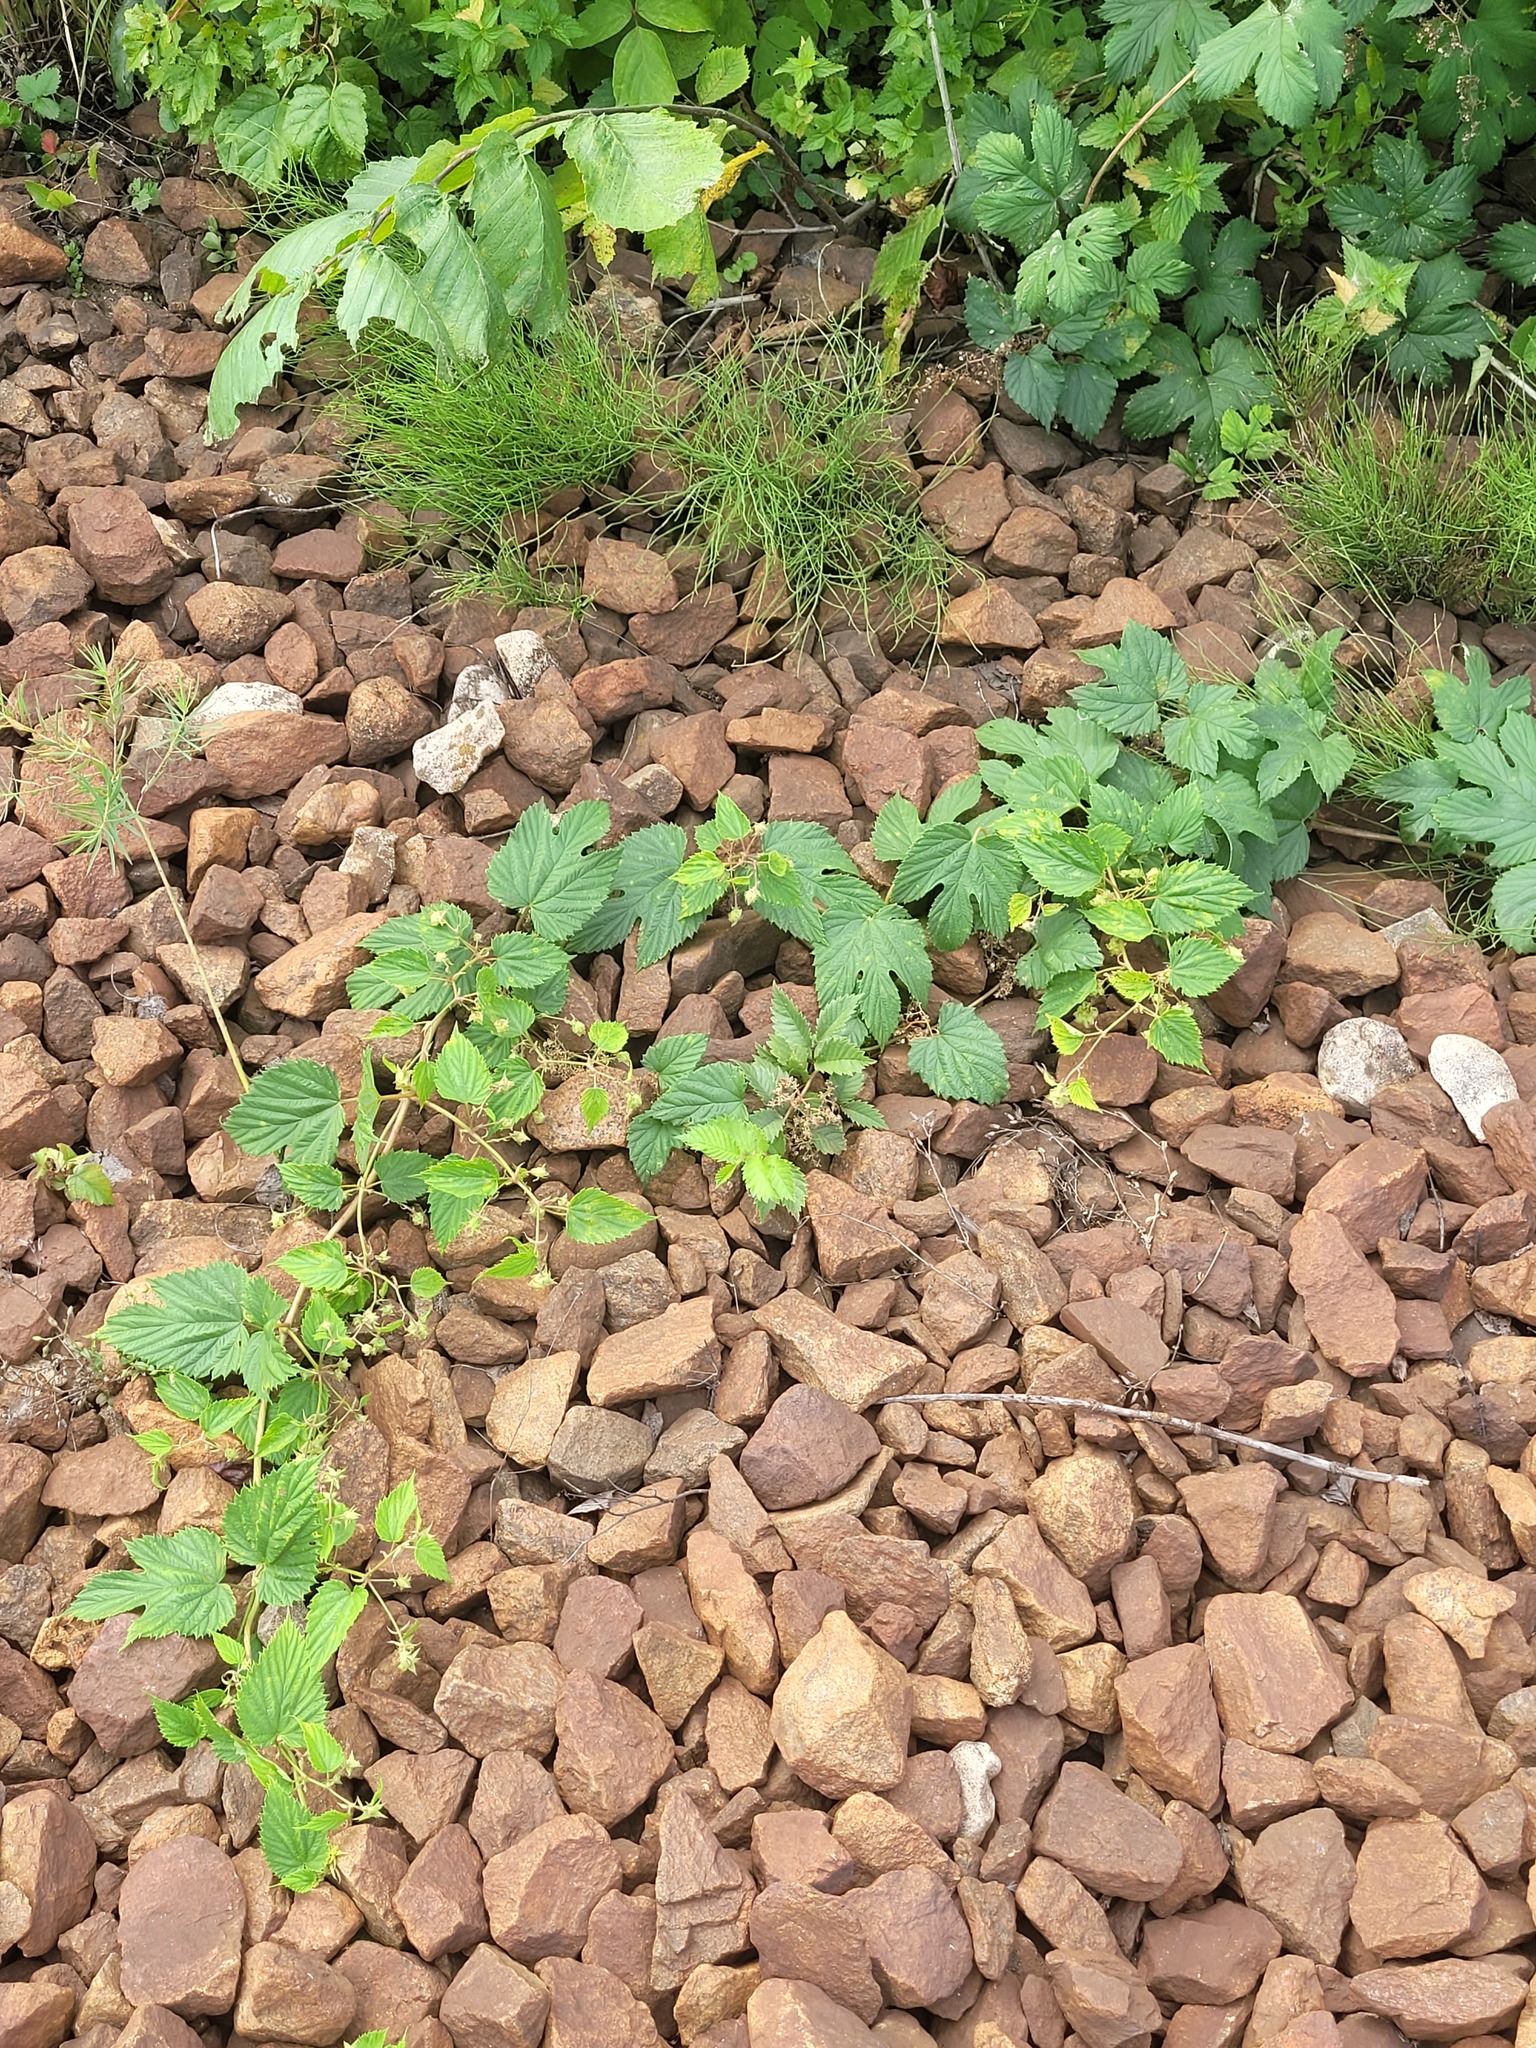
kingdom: Plantae
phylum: Tracheophyta
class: Magnoliopsida
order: Rosales
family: Cannabaceae
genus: Humulus
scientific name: Humulus lupulus
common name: Hop
